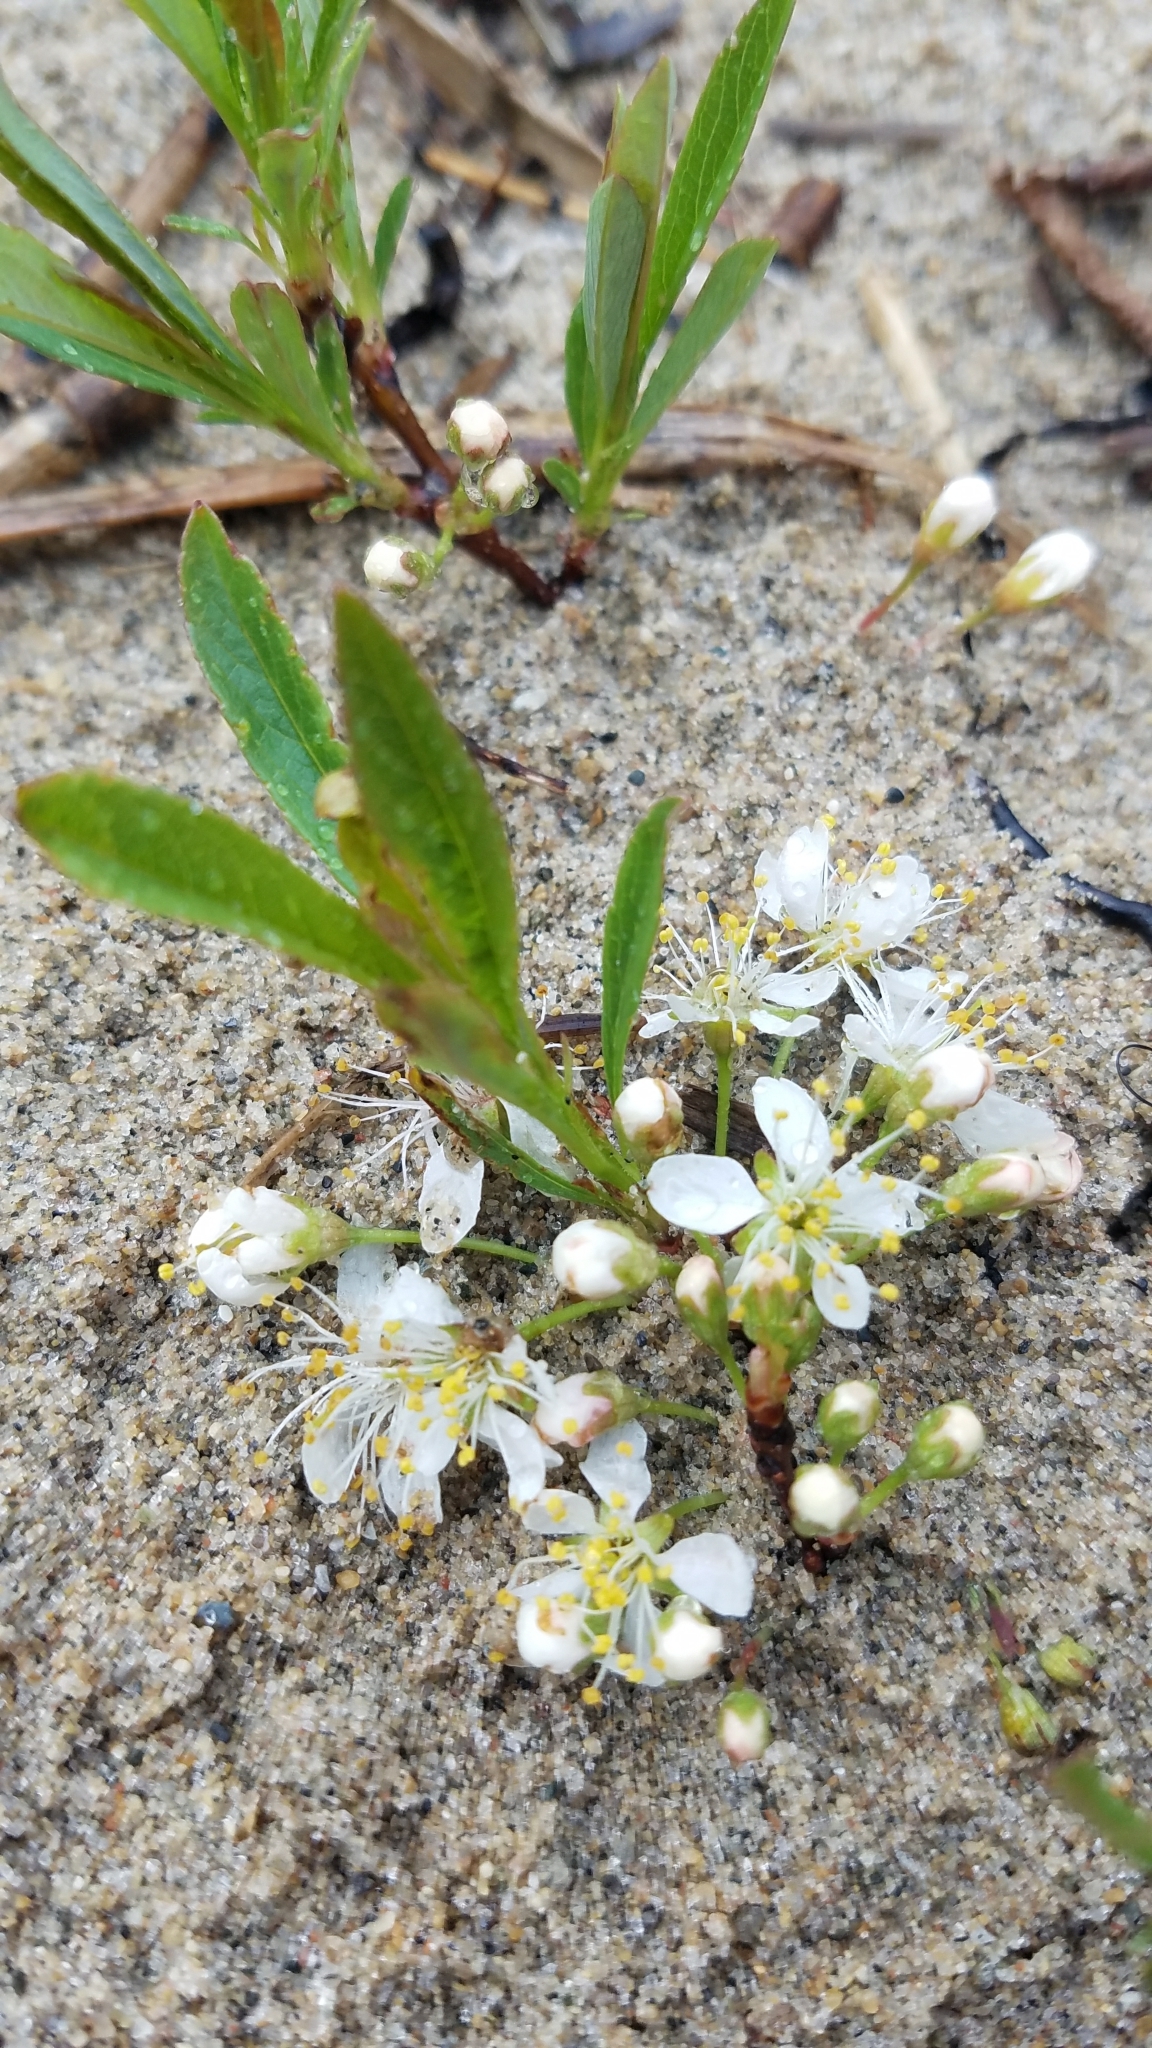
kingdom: Plantae
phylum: Tracheophyta
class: Magnoliopsida
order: Rosales
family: Rosaceae
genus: Prunus
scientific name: Prunus pumila
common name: Dwarf cherry
